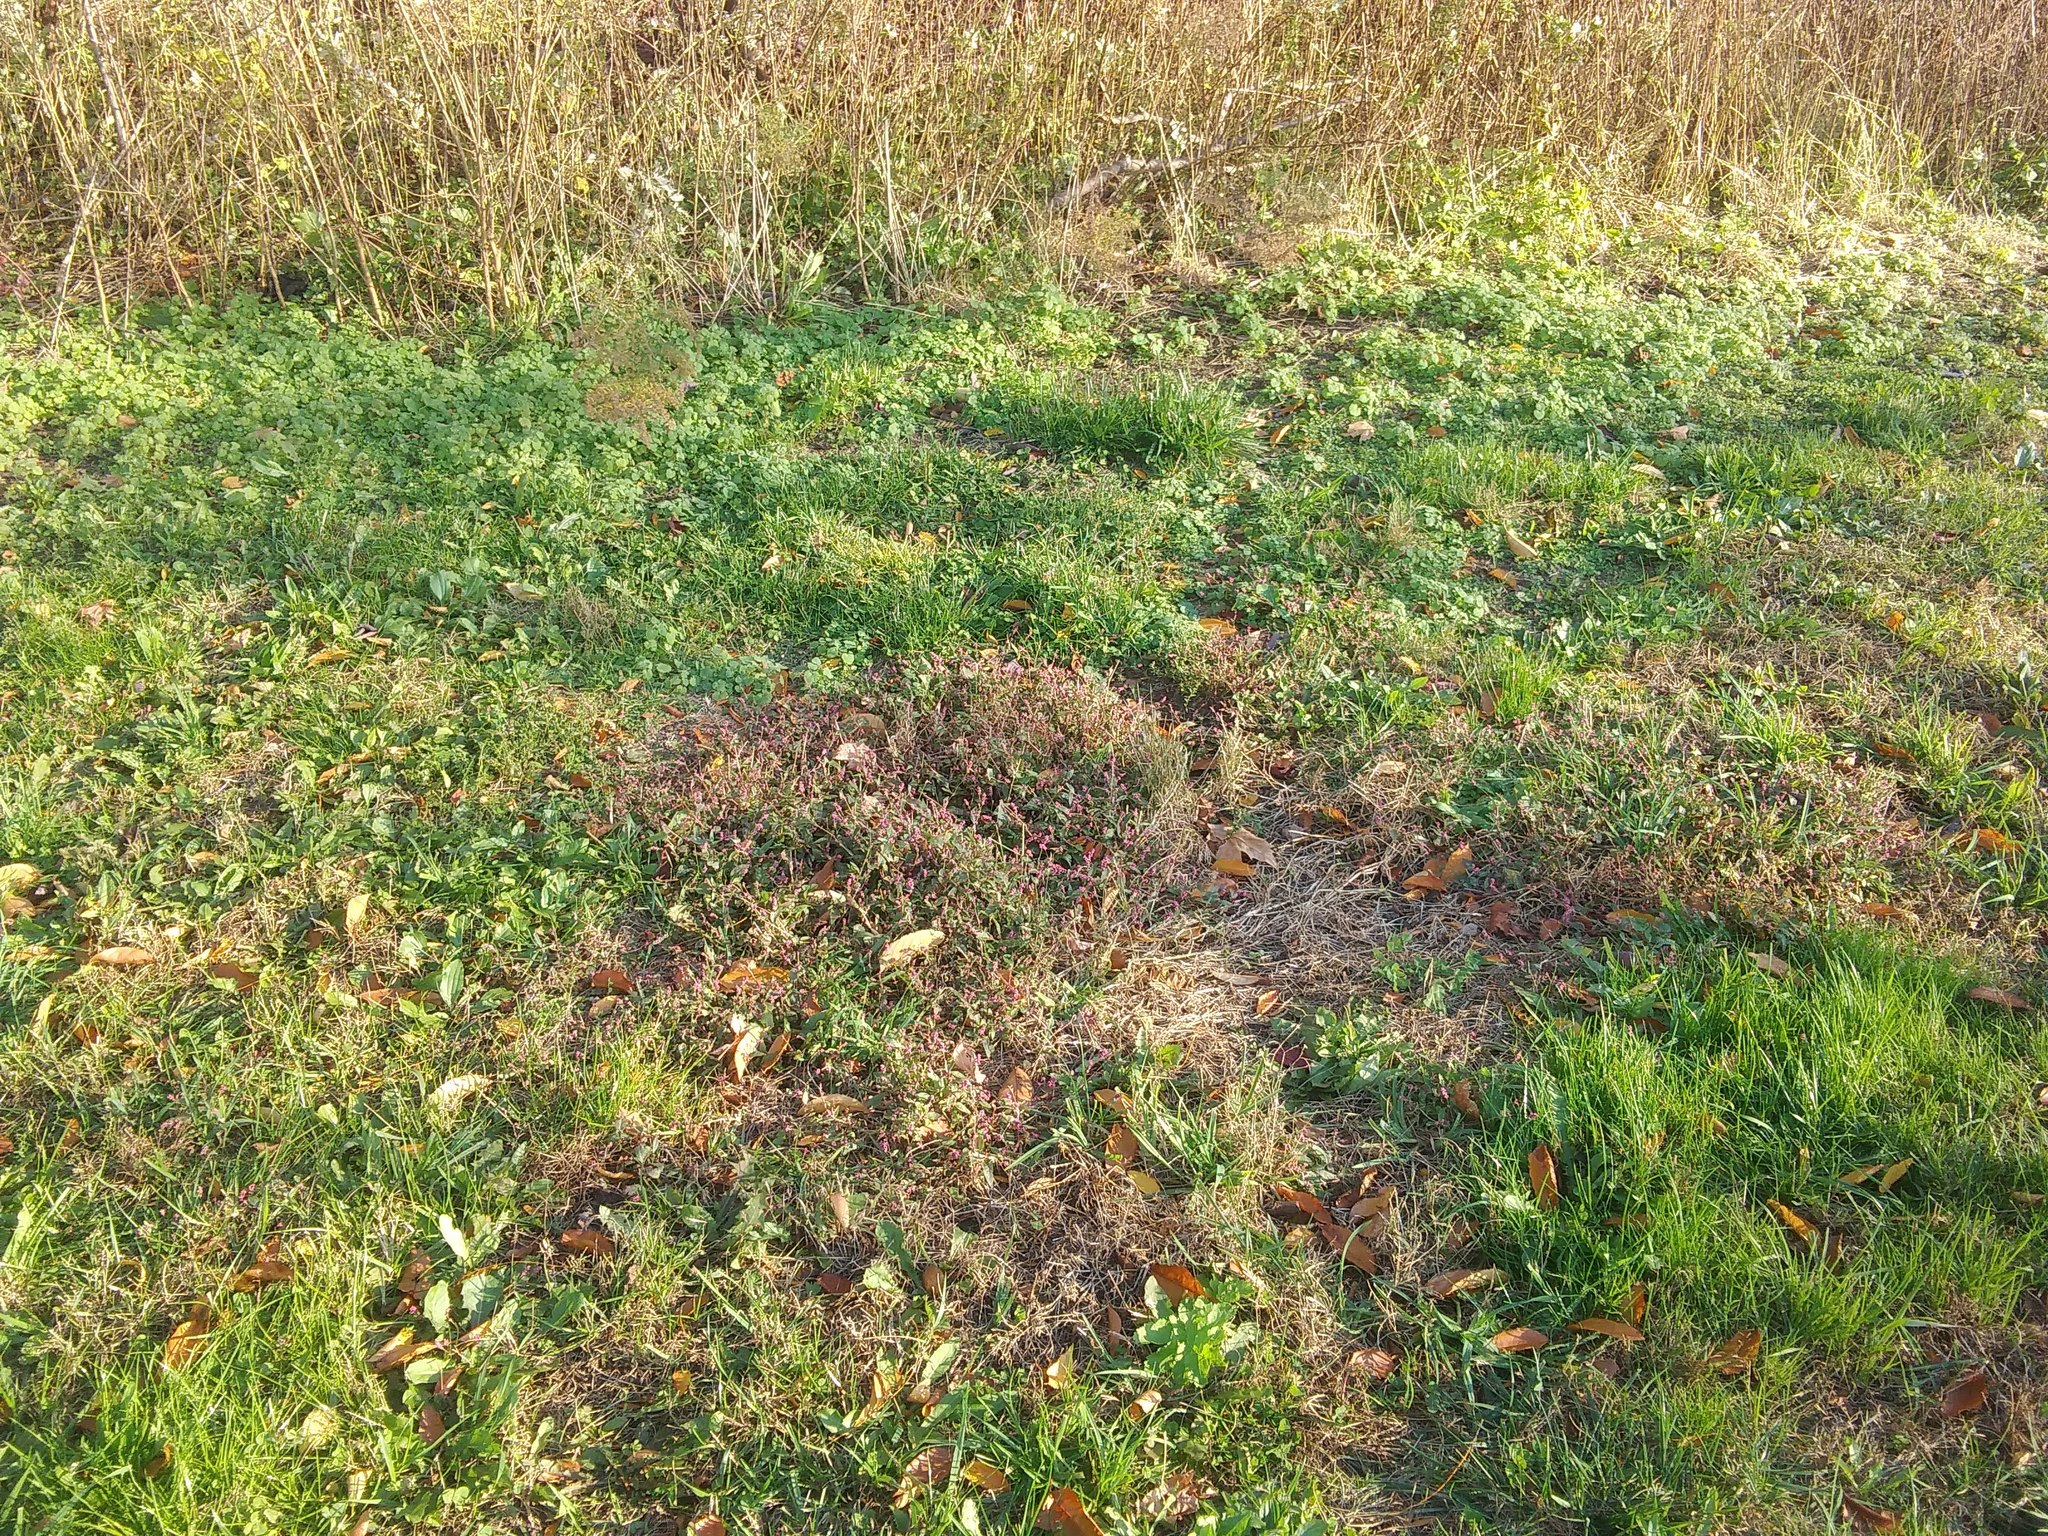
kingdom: Plantae
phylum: Tracheophyta
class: Magnoliopsida
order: Caryophyllales
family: Polygonaceae
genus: Persicaria
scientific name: Persicaria longiseta
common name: Bristly lady's-thumb
